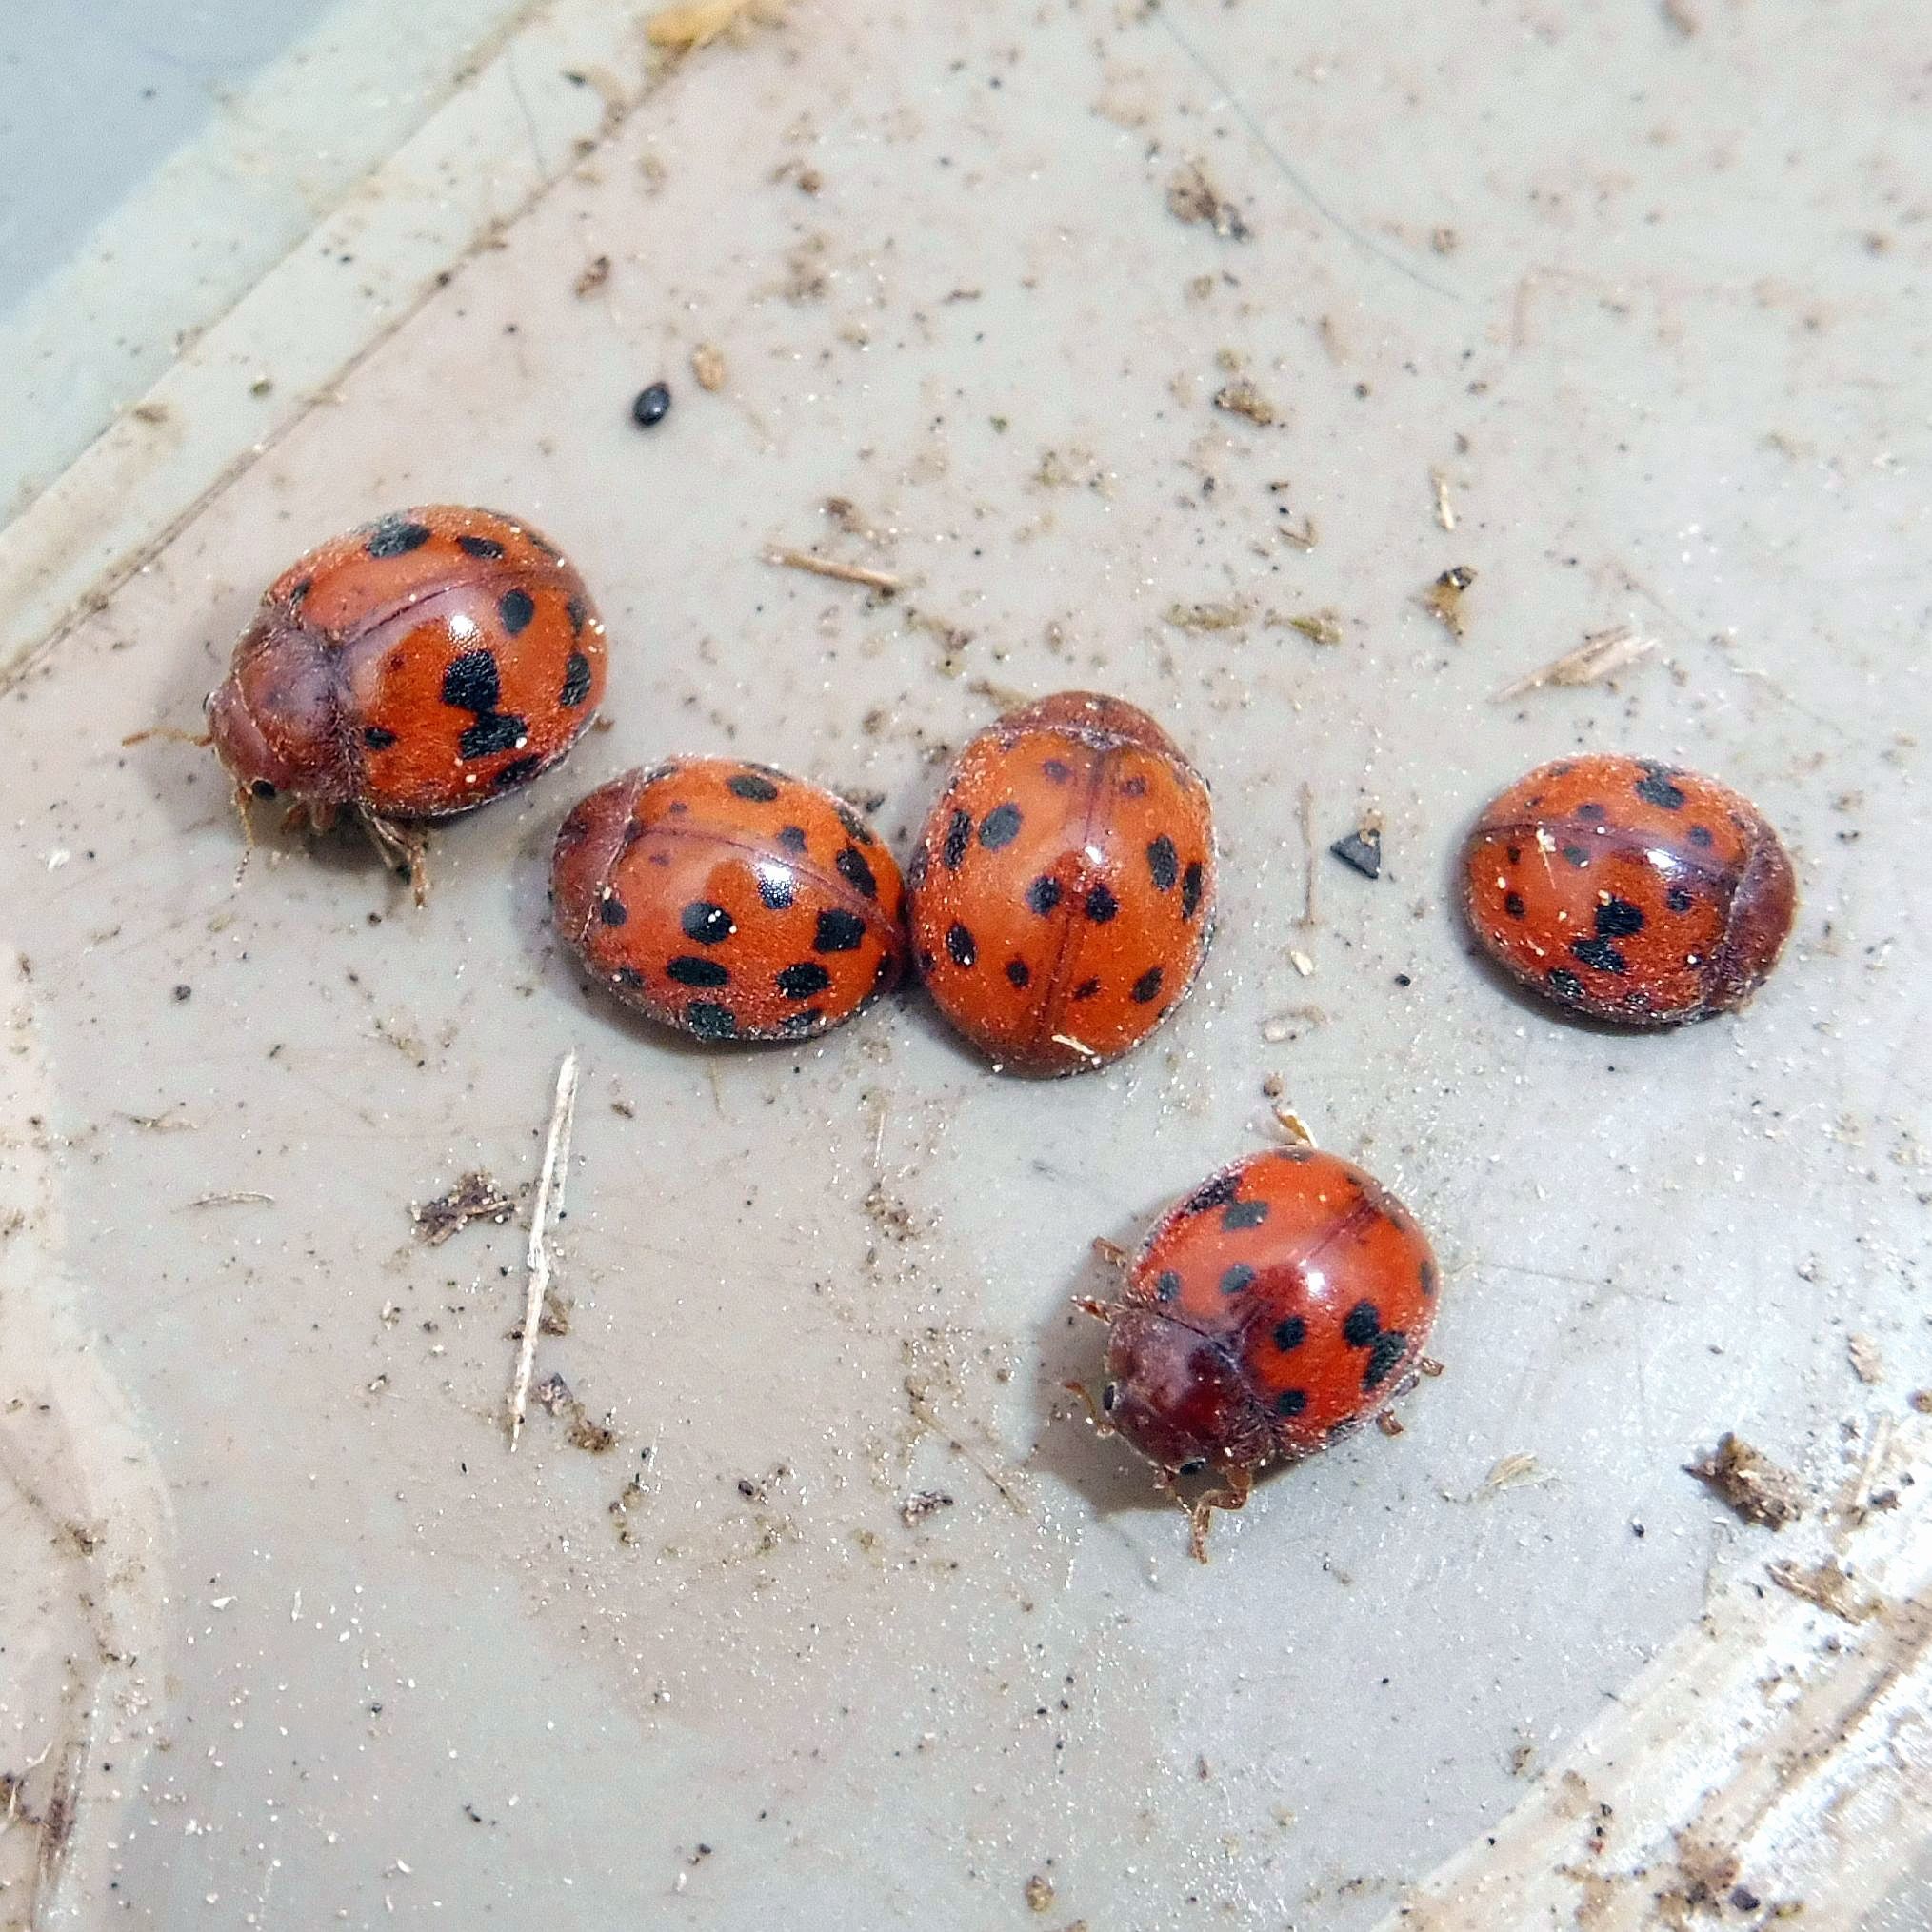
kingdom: Animalia
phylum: Arthropoda
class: Insecta
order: Coleoptera
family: Coccinellidae
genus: Subcoccinella
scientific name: Subcoccinella vigintiquatuorpunctata
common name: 24-spot ladybird
